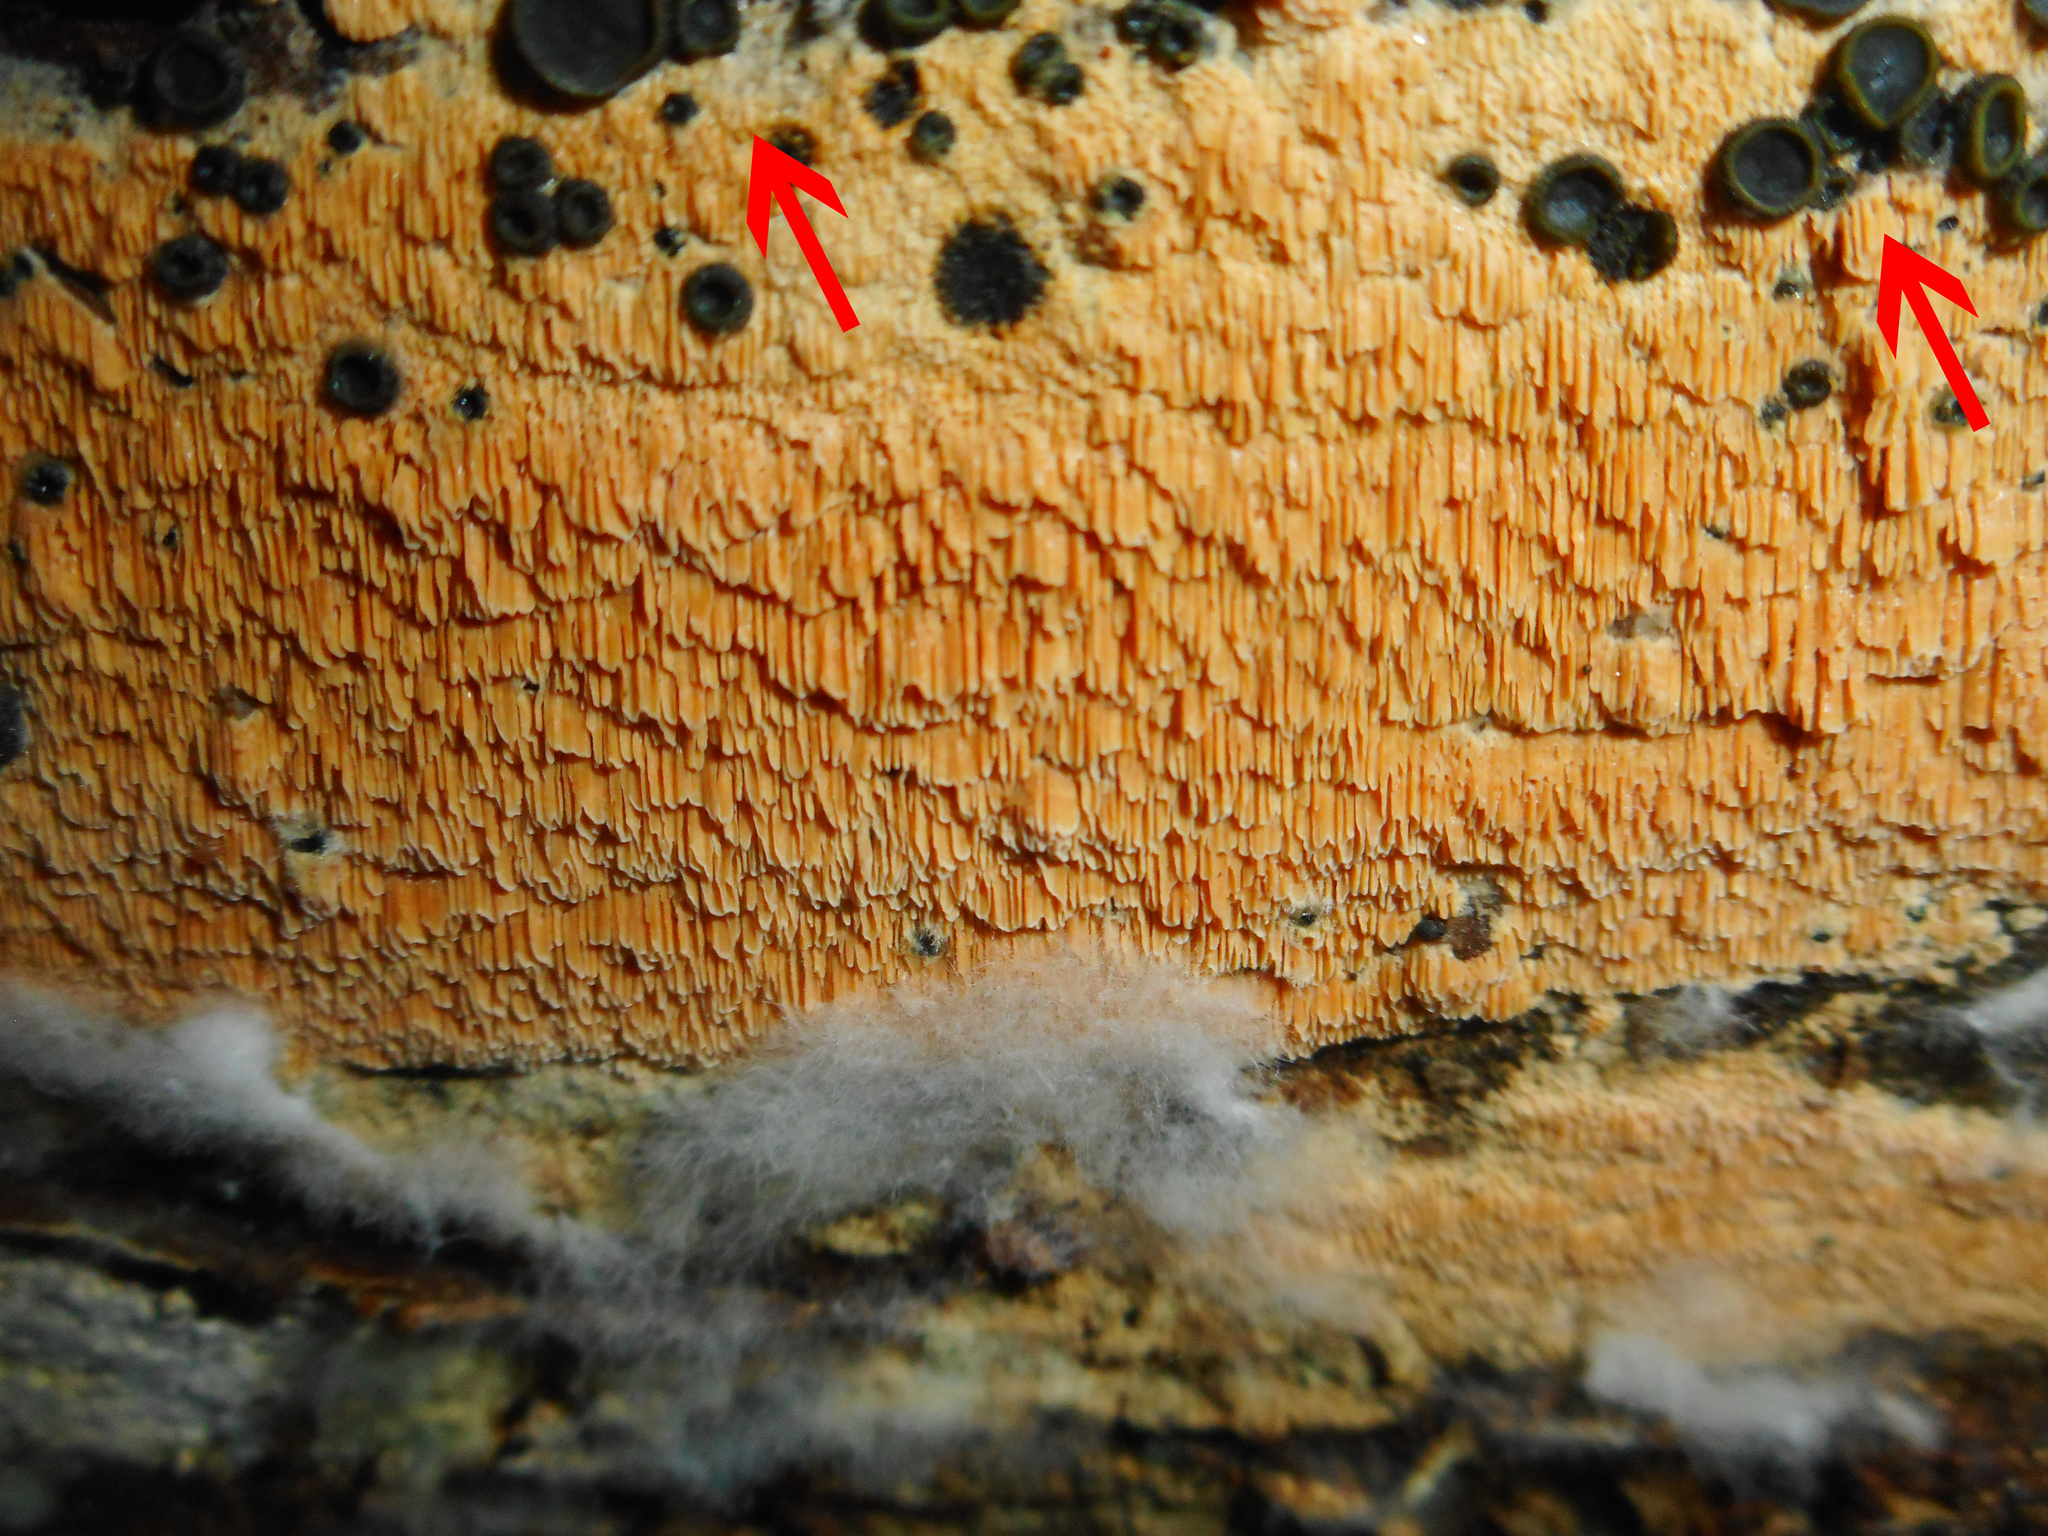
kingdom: Fungi
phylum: Ascomycota
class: Dothideomycetes
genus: Catinella
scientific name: Catinella olivacea
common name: Olive salver
